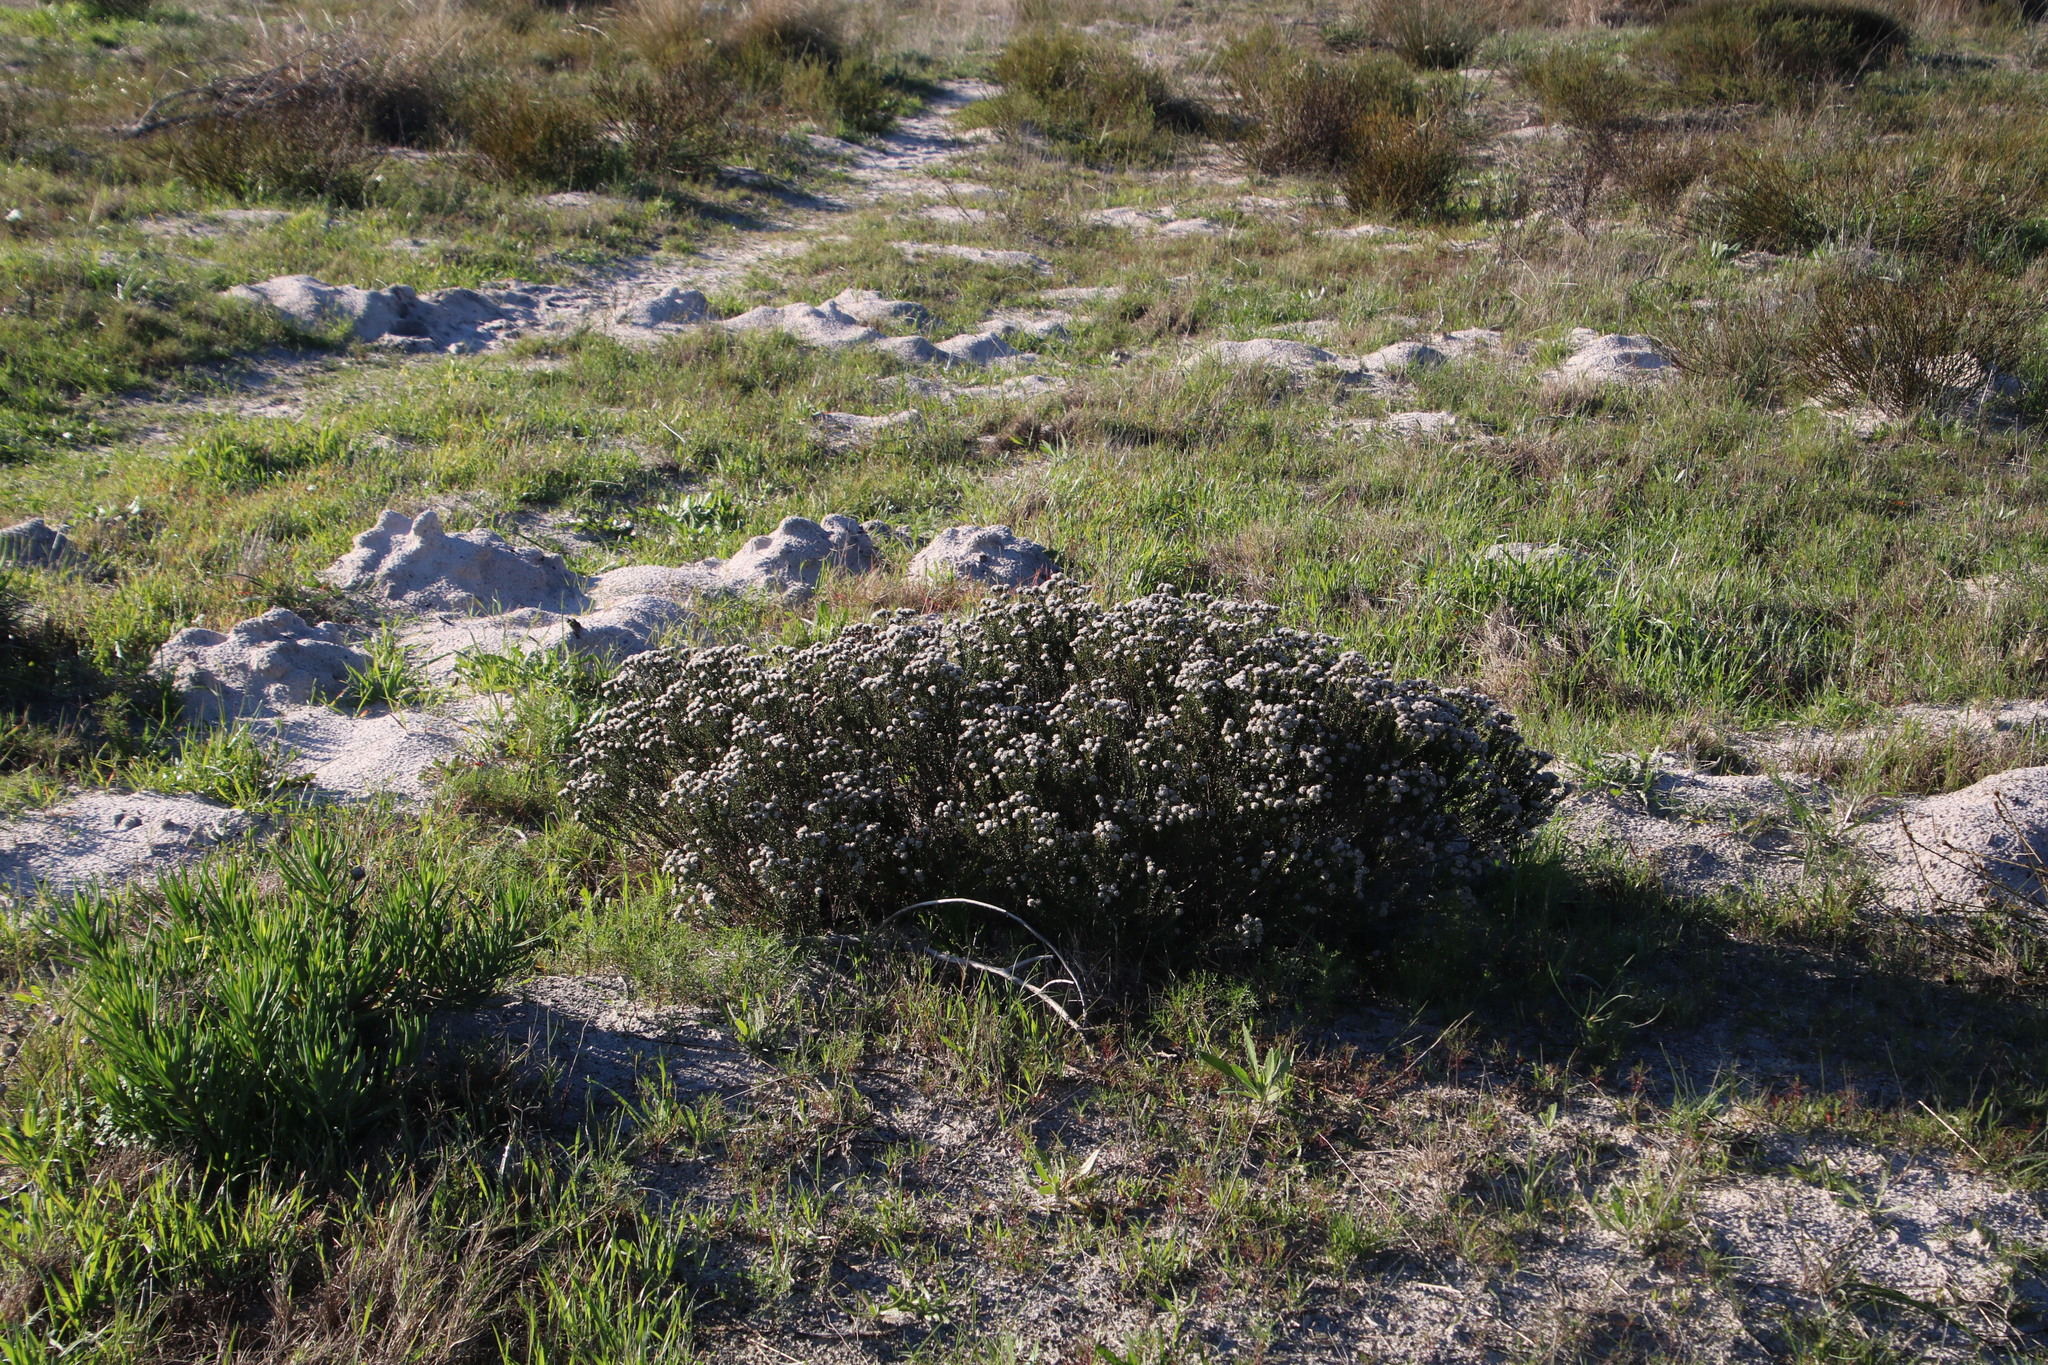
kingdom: Plantae
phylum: Tracheophyta
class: Magnoliopsida
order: Rosales
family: Rhamnaceae
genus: Trichocephalus
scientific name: Trichocephalus stipularis
